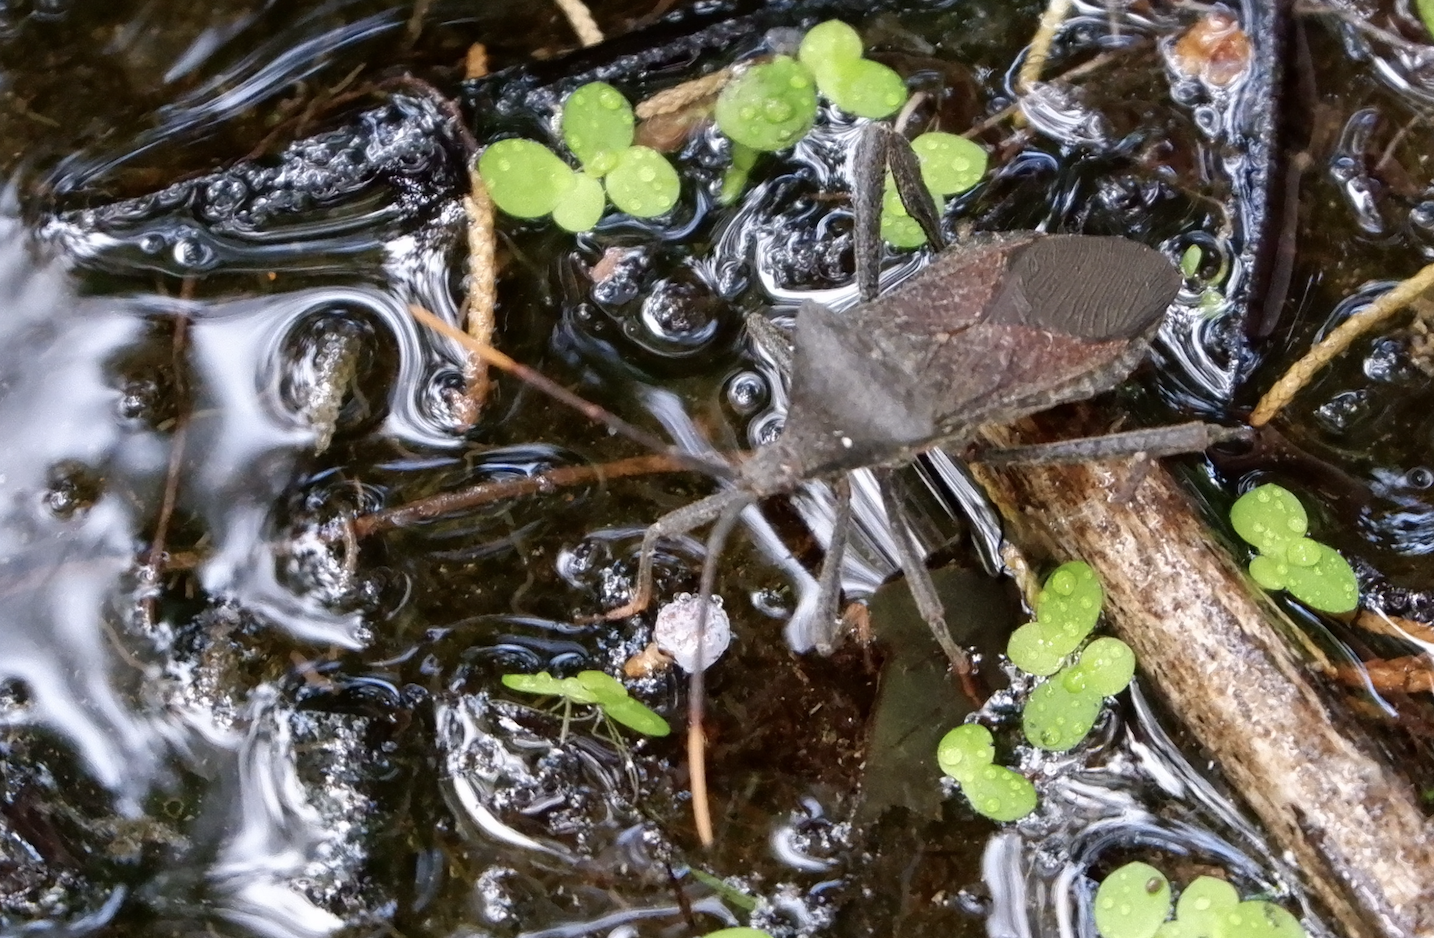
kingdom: Animalia
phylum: Arthropoda
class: Insecta
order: Hemiptera
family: Coreidae
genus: Acanthocephala
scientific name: Acanthocephala terminalis
